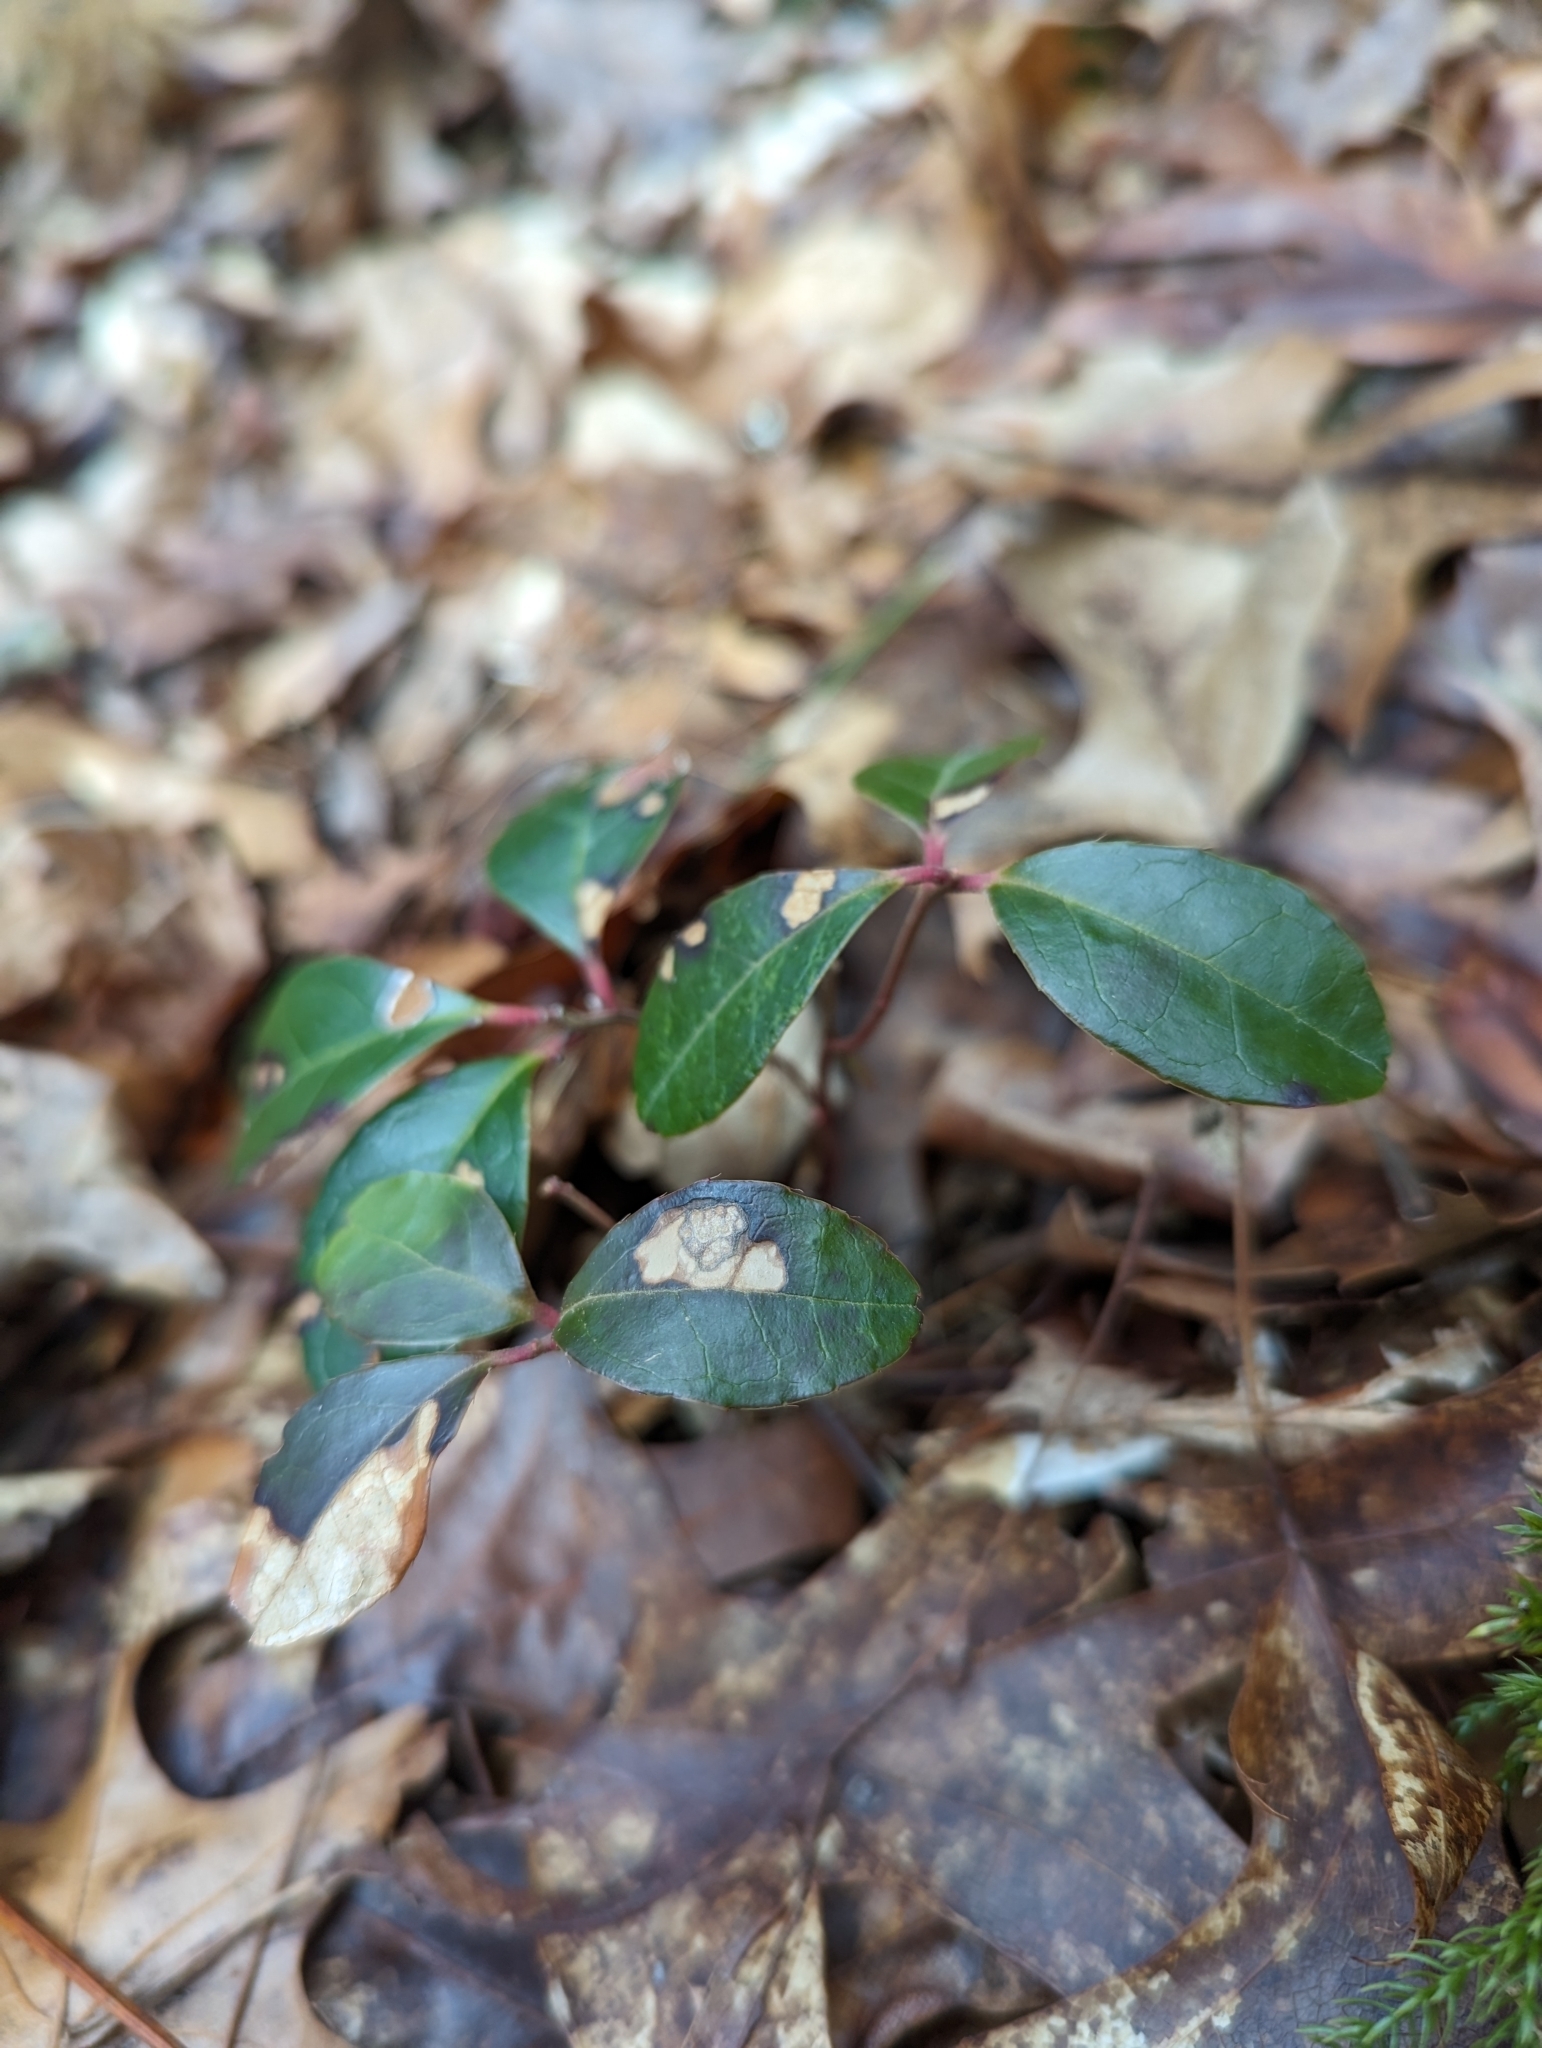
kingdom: Plantae
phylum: Tracheophyta
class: Magnoliopsida
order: Ericales
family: Ericaceae
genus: Gaultheria
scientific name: Gaultheria procumbens
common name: Checkerberry
